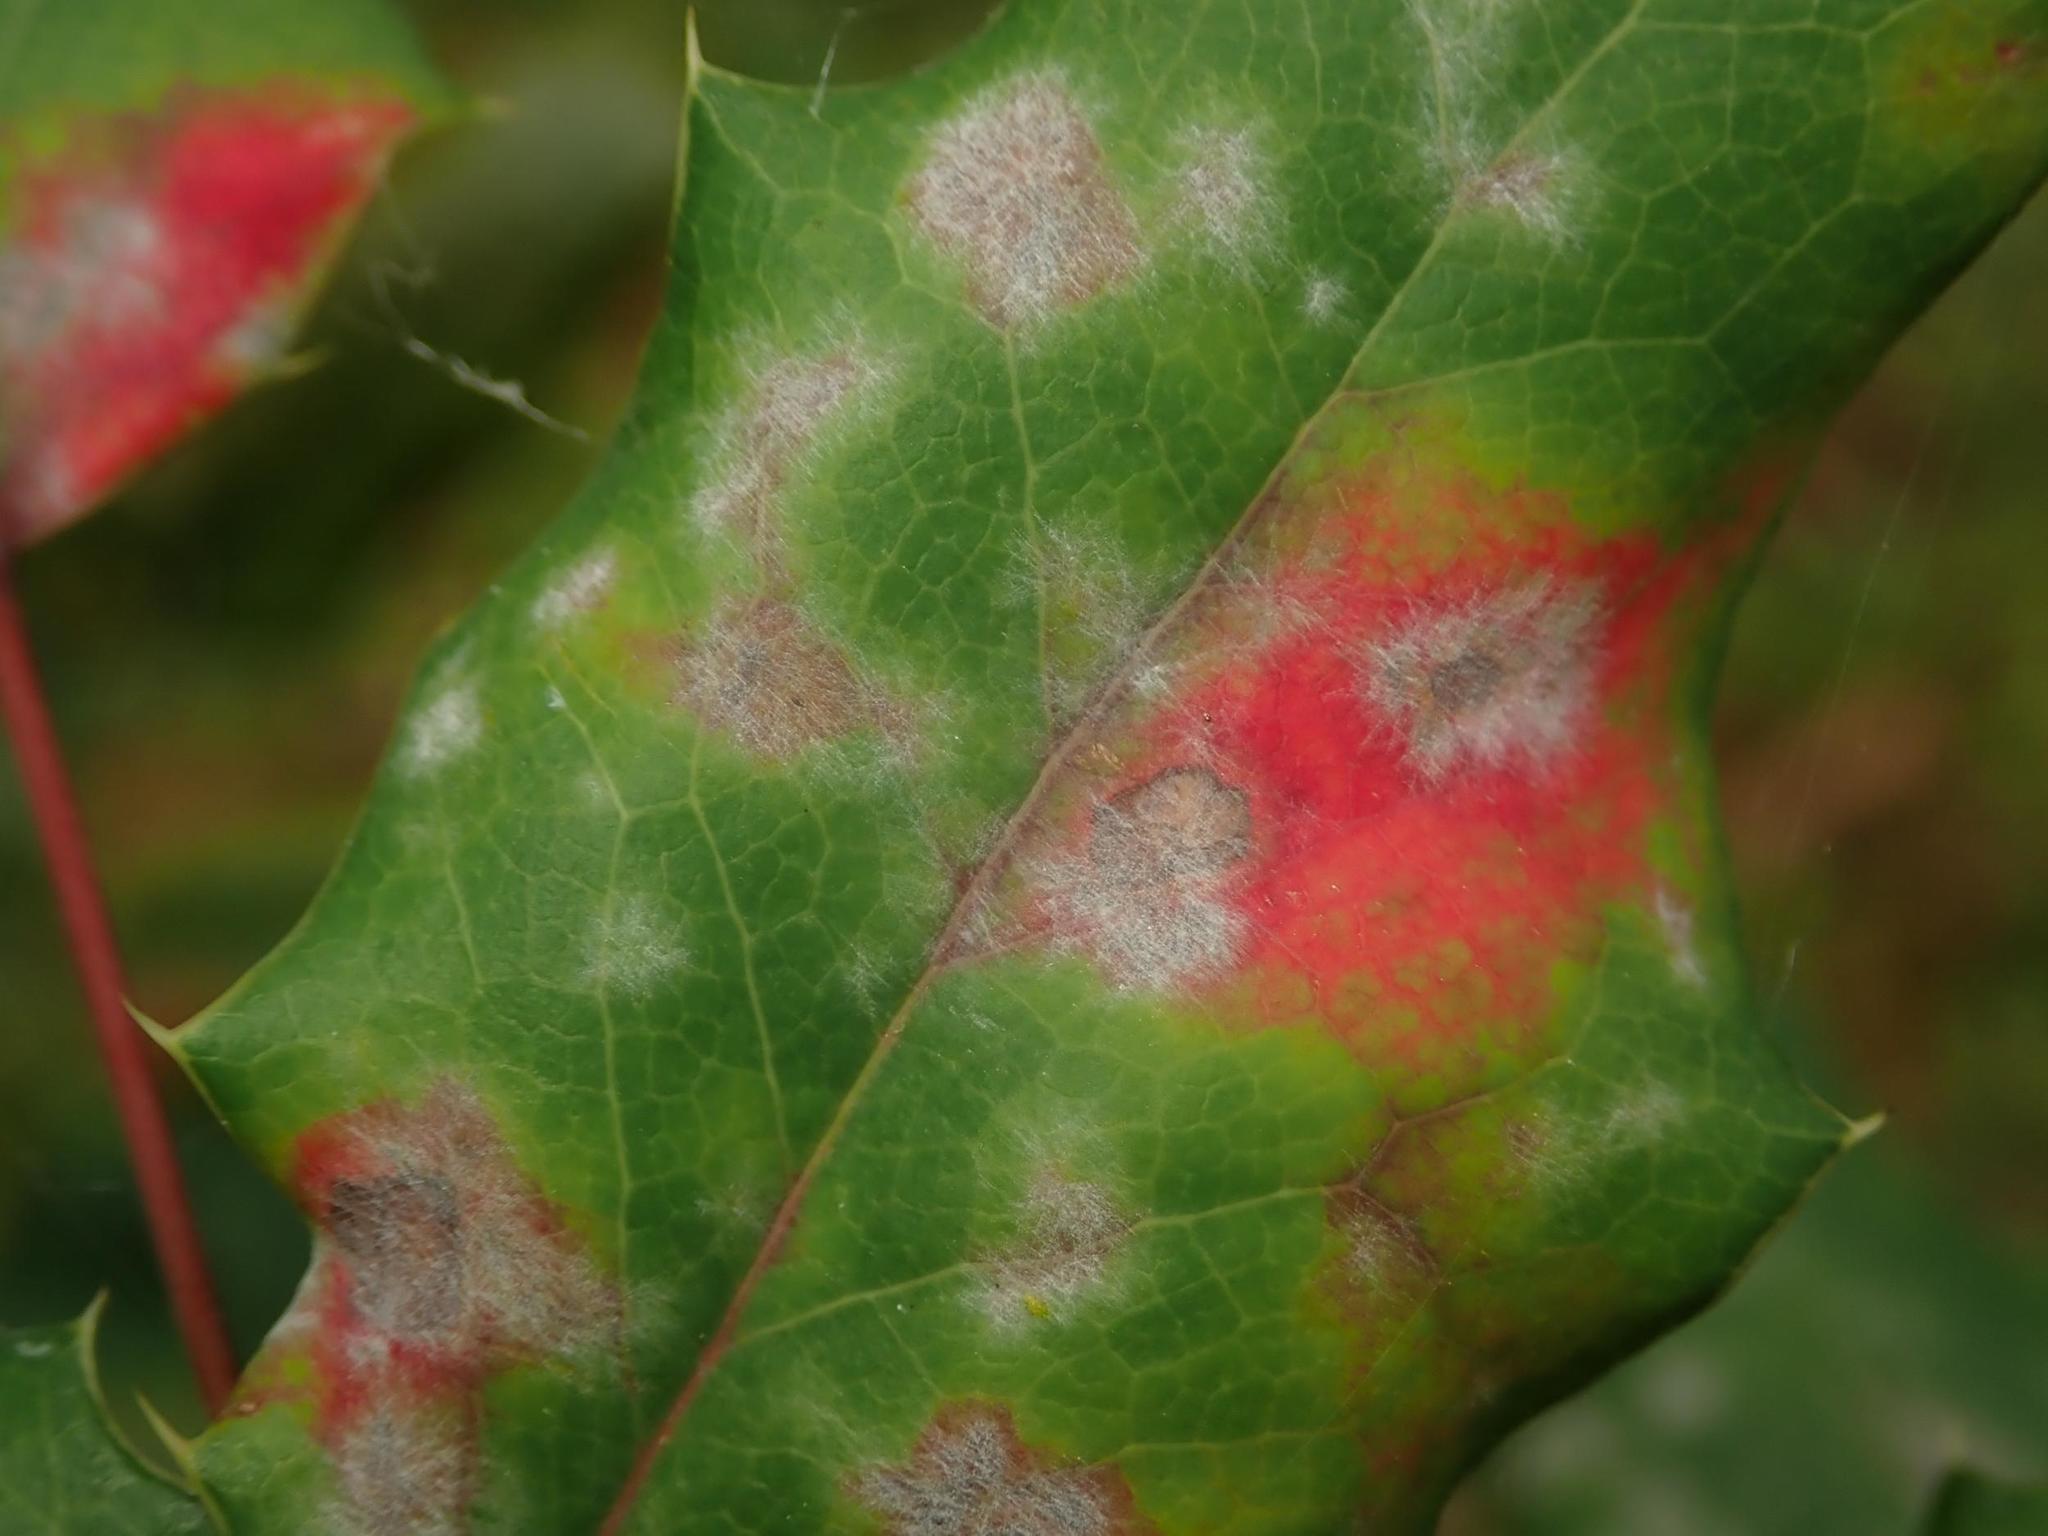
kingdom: Fungi
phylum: Ascomycota
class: Leotiomycetes
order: Helotiales
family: Erysiphaceae
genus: Erysiphe
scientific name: Erysiphe berberidis
